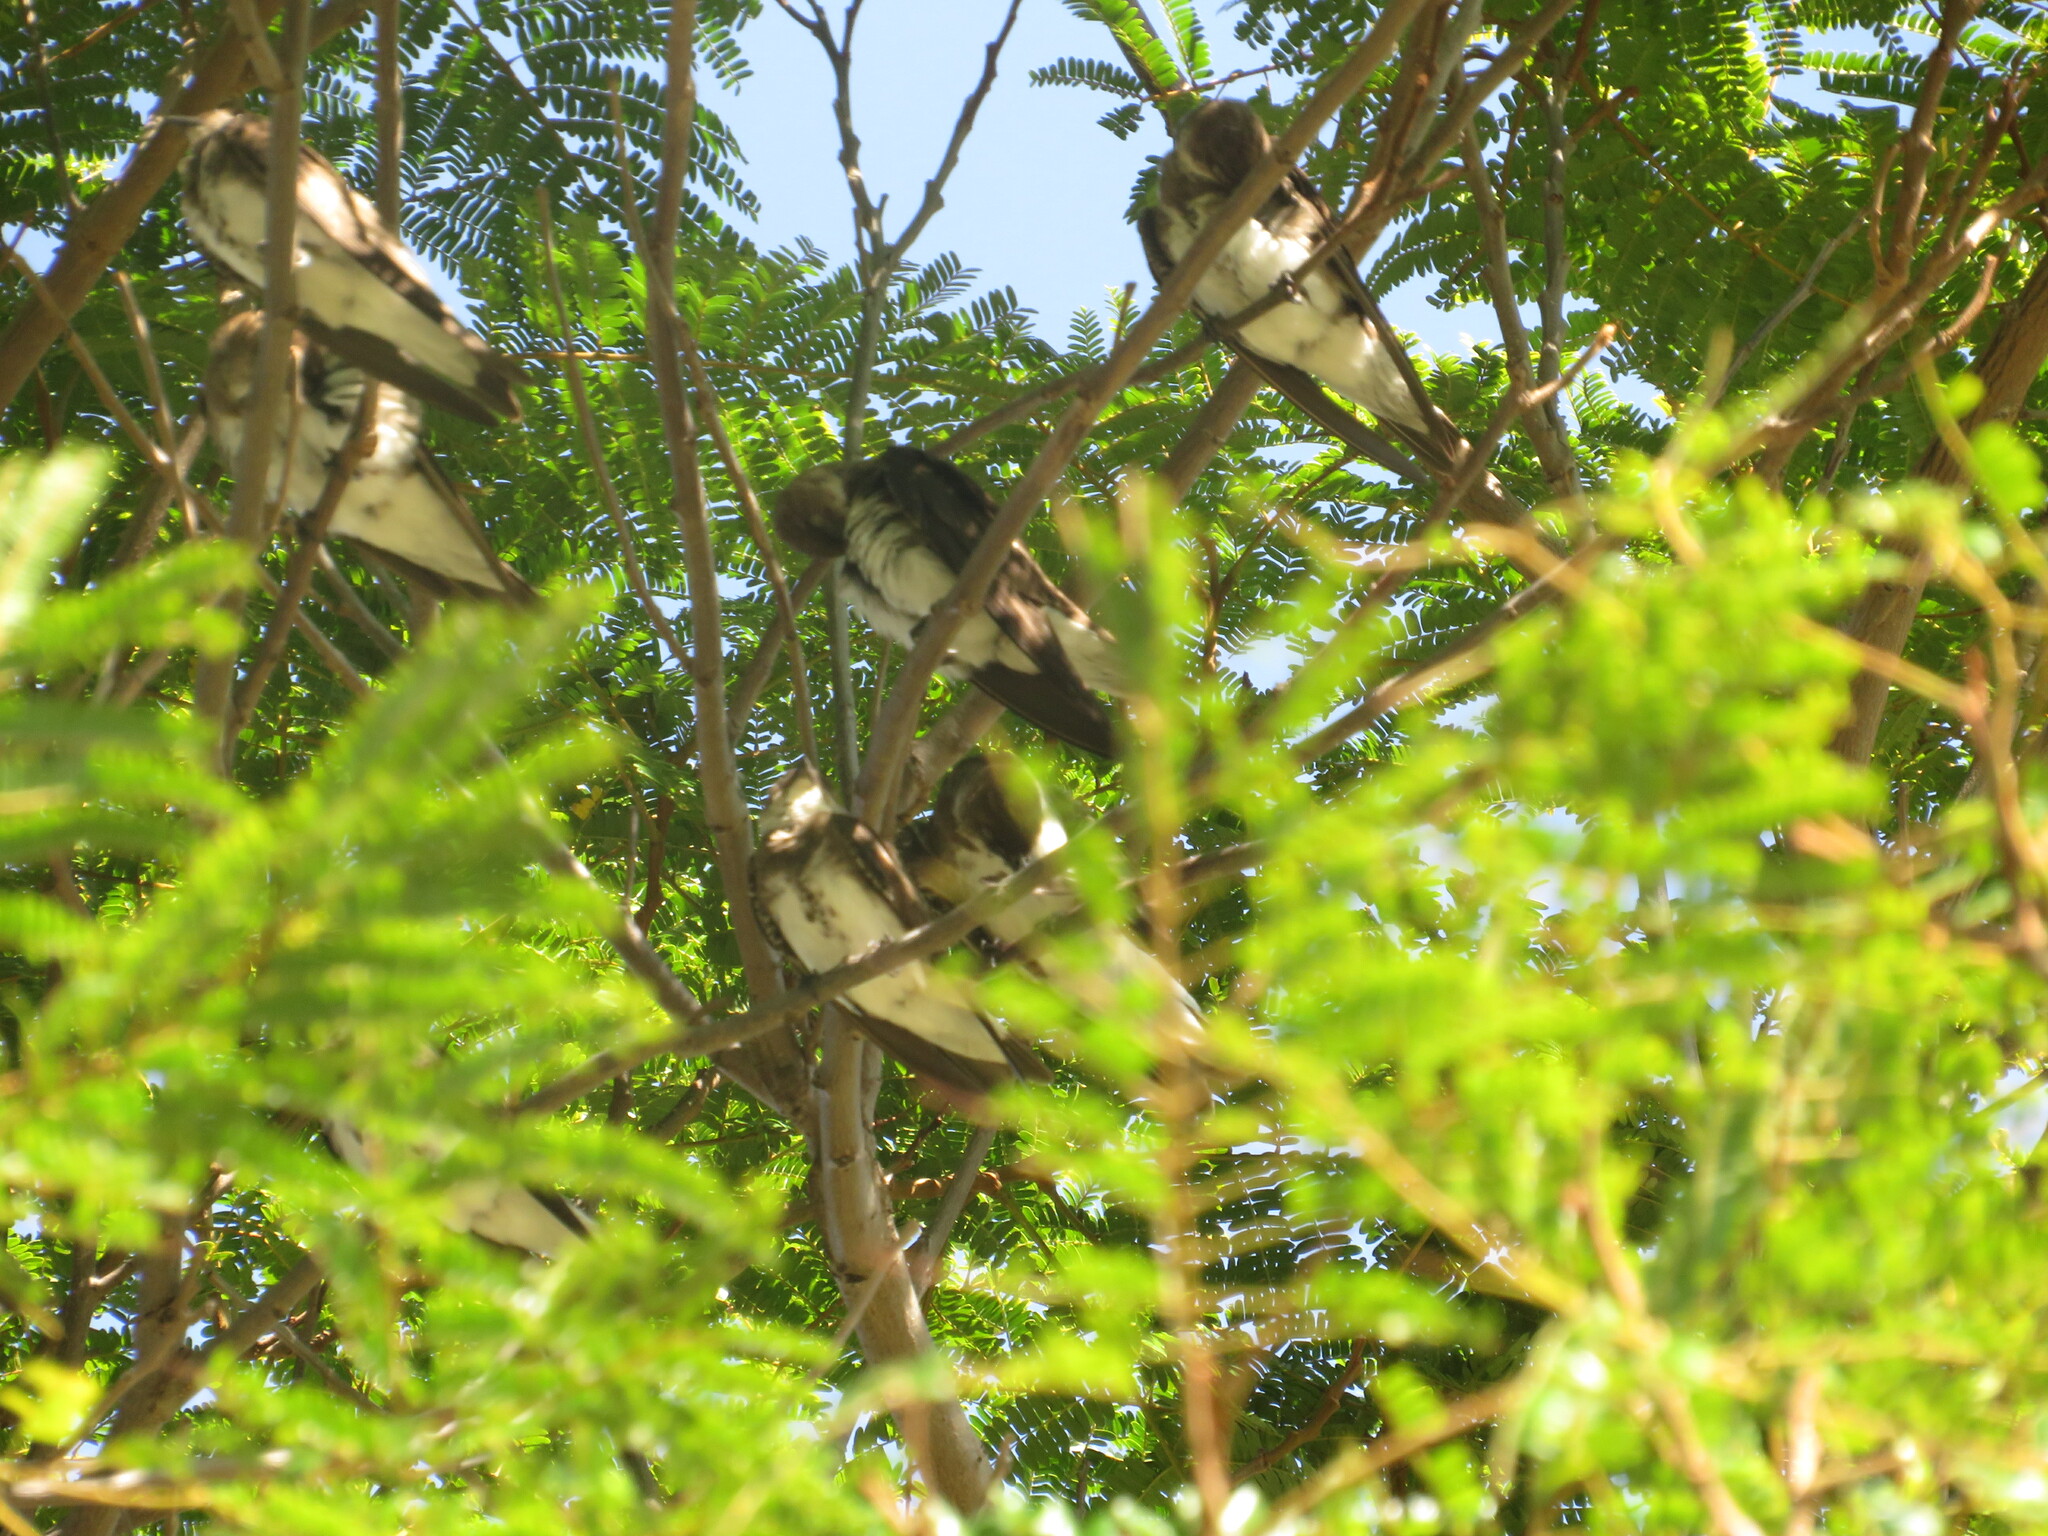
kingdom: Animalia
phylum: Chordata
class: Aves
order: Passeriformes
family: Hirundinidae
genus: Progne
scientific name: Progne tapera
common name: Brown-chested martin
